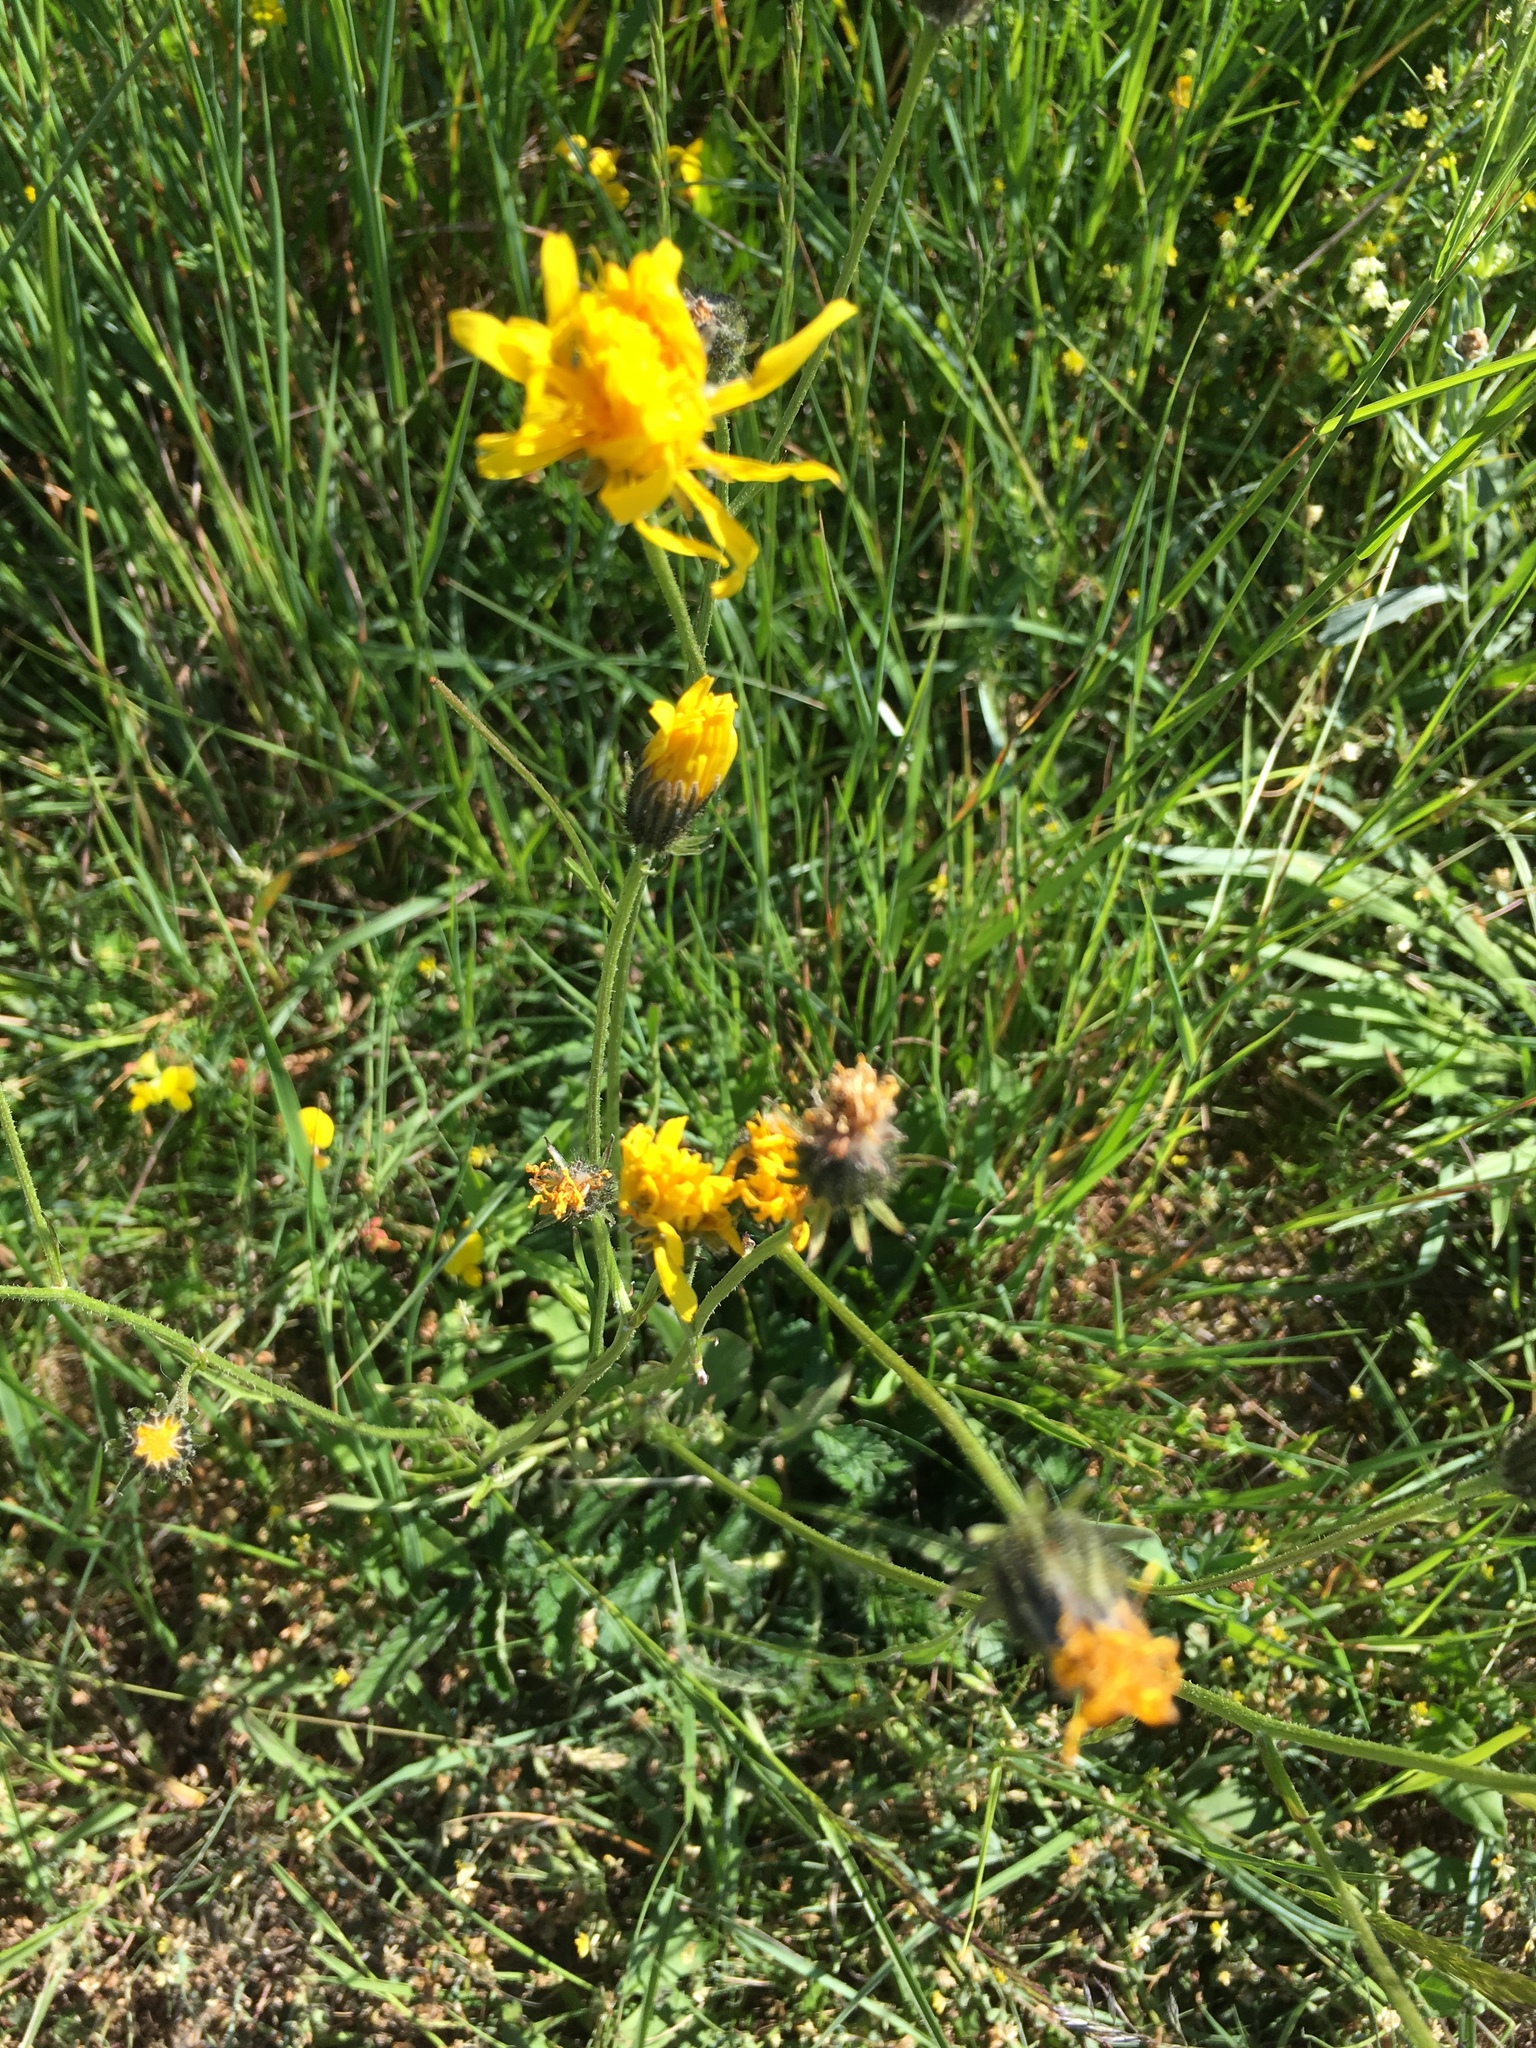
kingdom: Plantae
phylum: Tracheophyta
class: Magnoliopsida
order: Asterales
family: Asteraceae
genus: Crepis
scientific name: Crepis biennis
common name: Rough hawk's-beard
